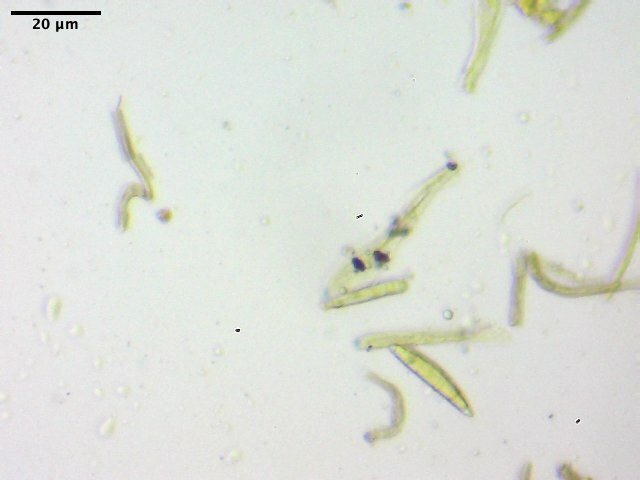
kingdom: Fungi
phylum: Ascomycota
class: Geoglossomycetes
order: Geoglossales
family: Geoglossaceae
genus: Sarcoleotia
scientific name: Sarcoleotia globosa
